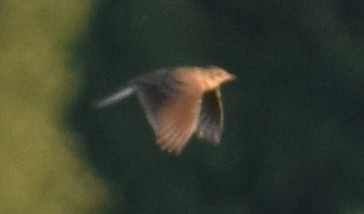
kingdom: Animalia
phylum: Chordata
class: Aves
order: Passeriformes
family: Alaudidae
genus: Alauda
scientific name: Alauda arvensis
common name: Eurasian skylark
